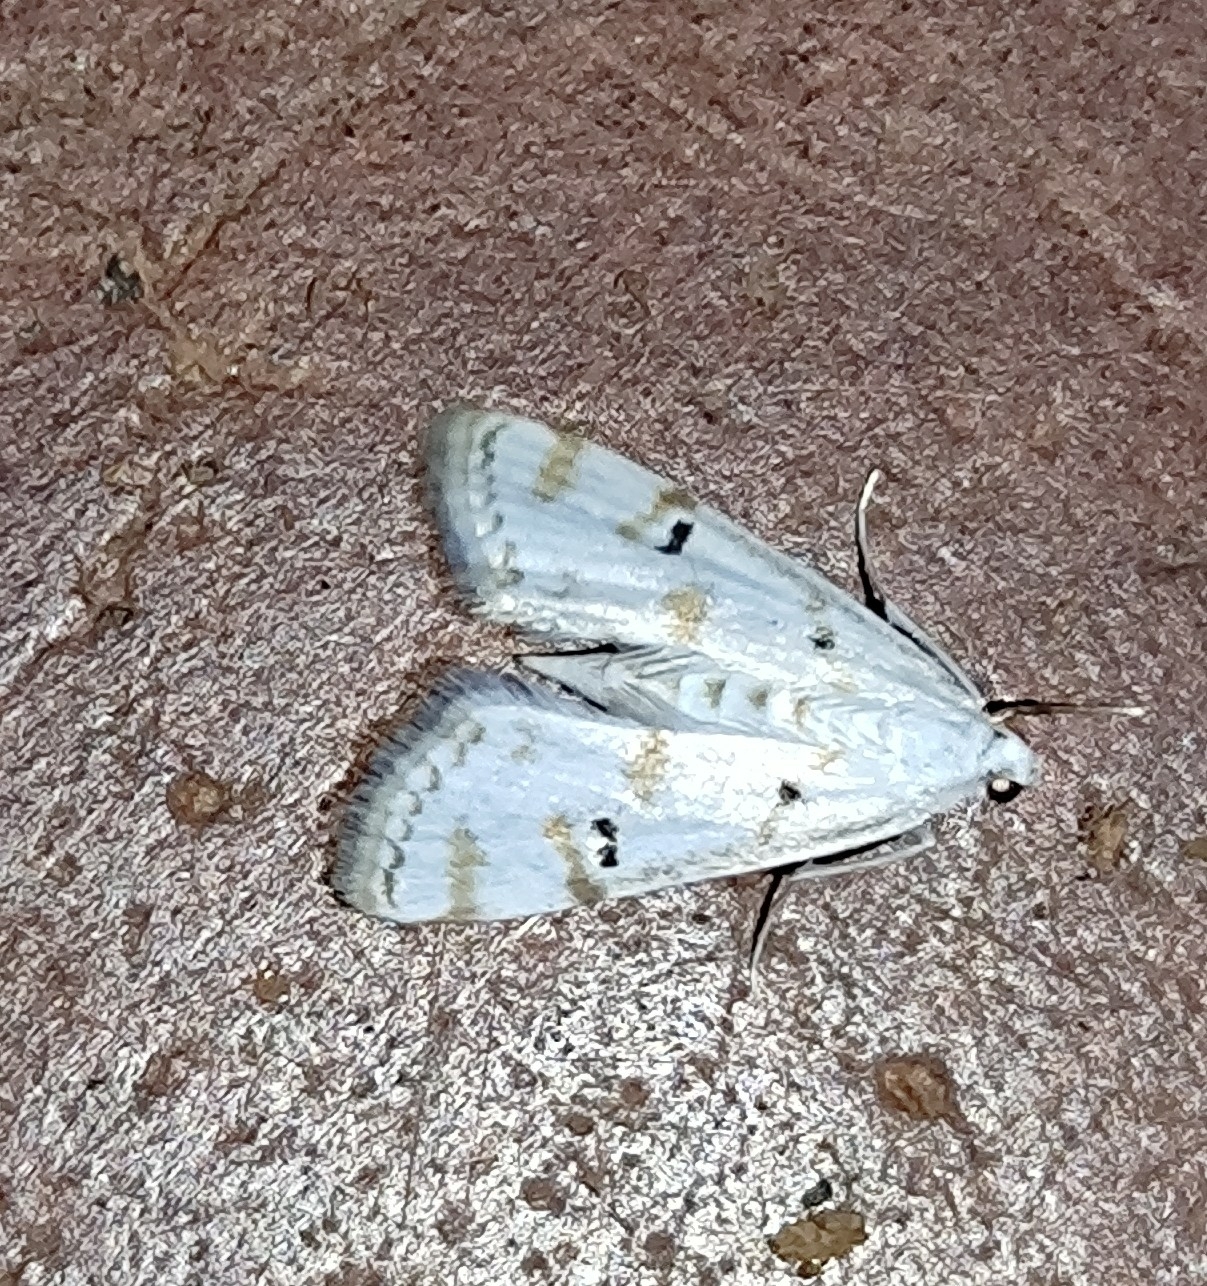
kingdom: Animalia
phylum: Arthropoda
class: Insecta
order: Lepidoptera
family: Crambidae
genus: Parapoynx
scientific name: Parapoynx stagnalis
